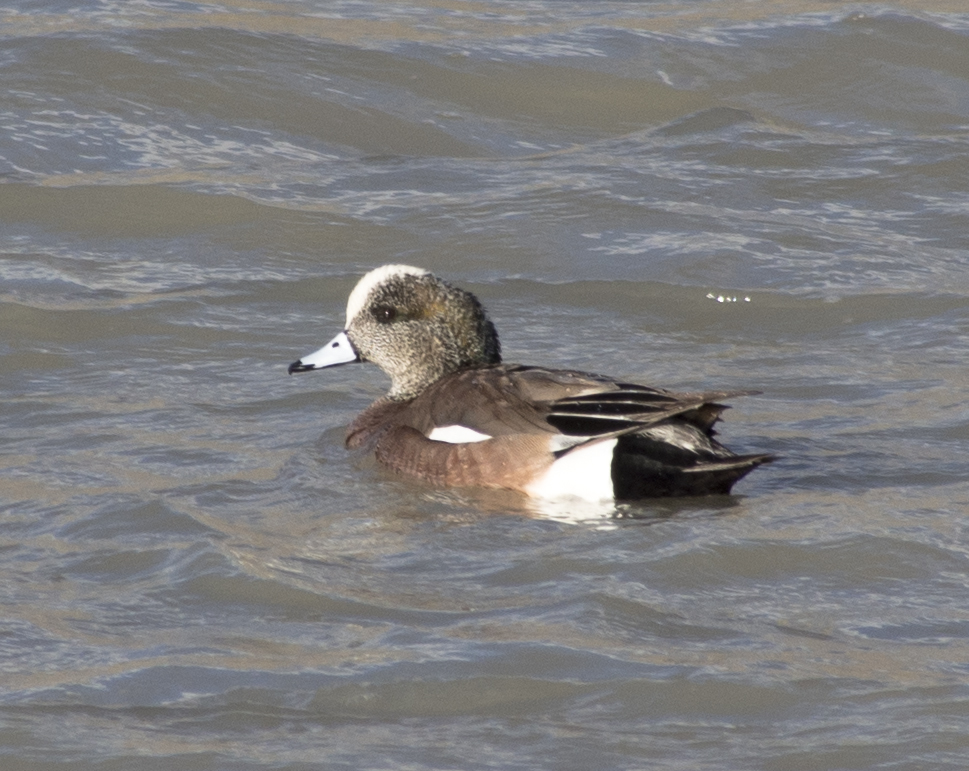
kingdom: Animalia
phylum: Chordata
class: Aves
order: Anseriformes
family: Anatidae
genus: Mareca
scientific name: Mareca americana
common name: American wigeon
